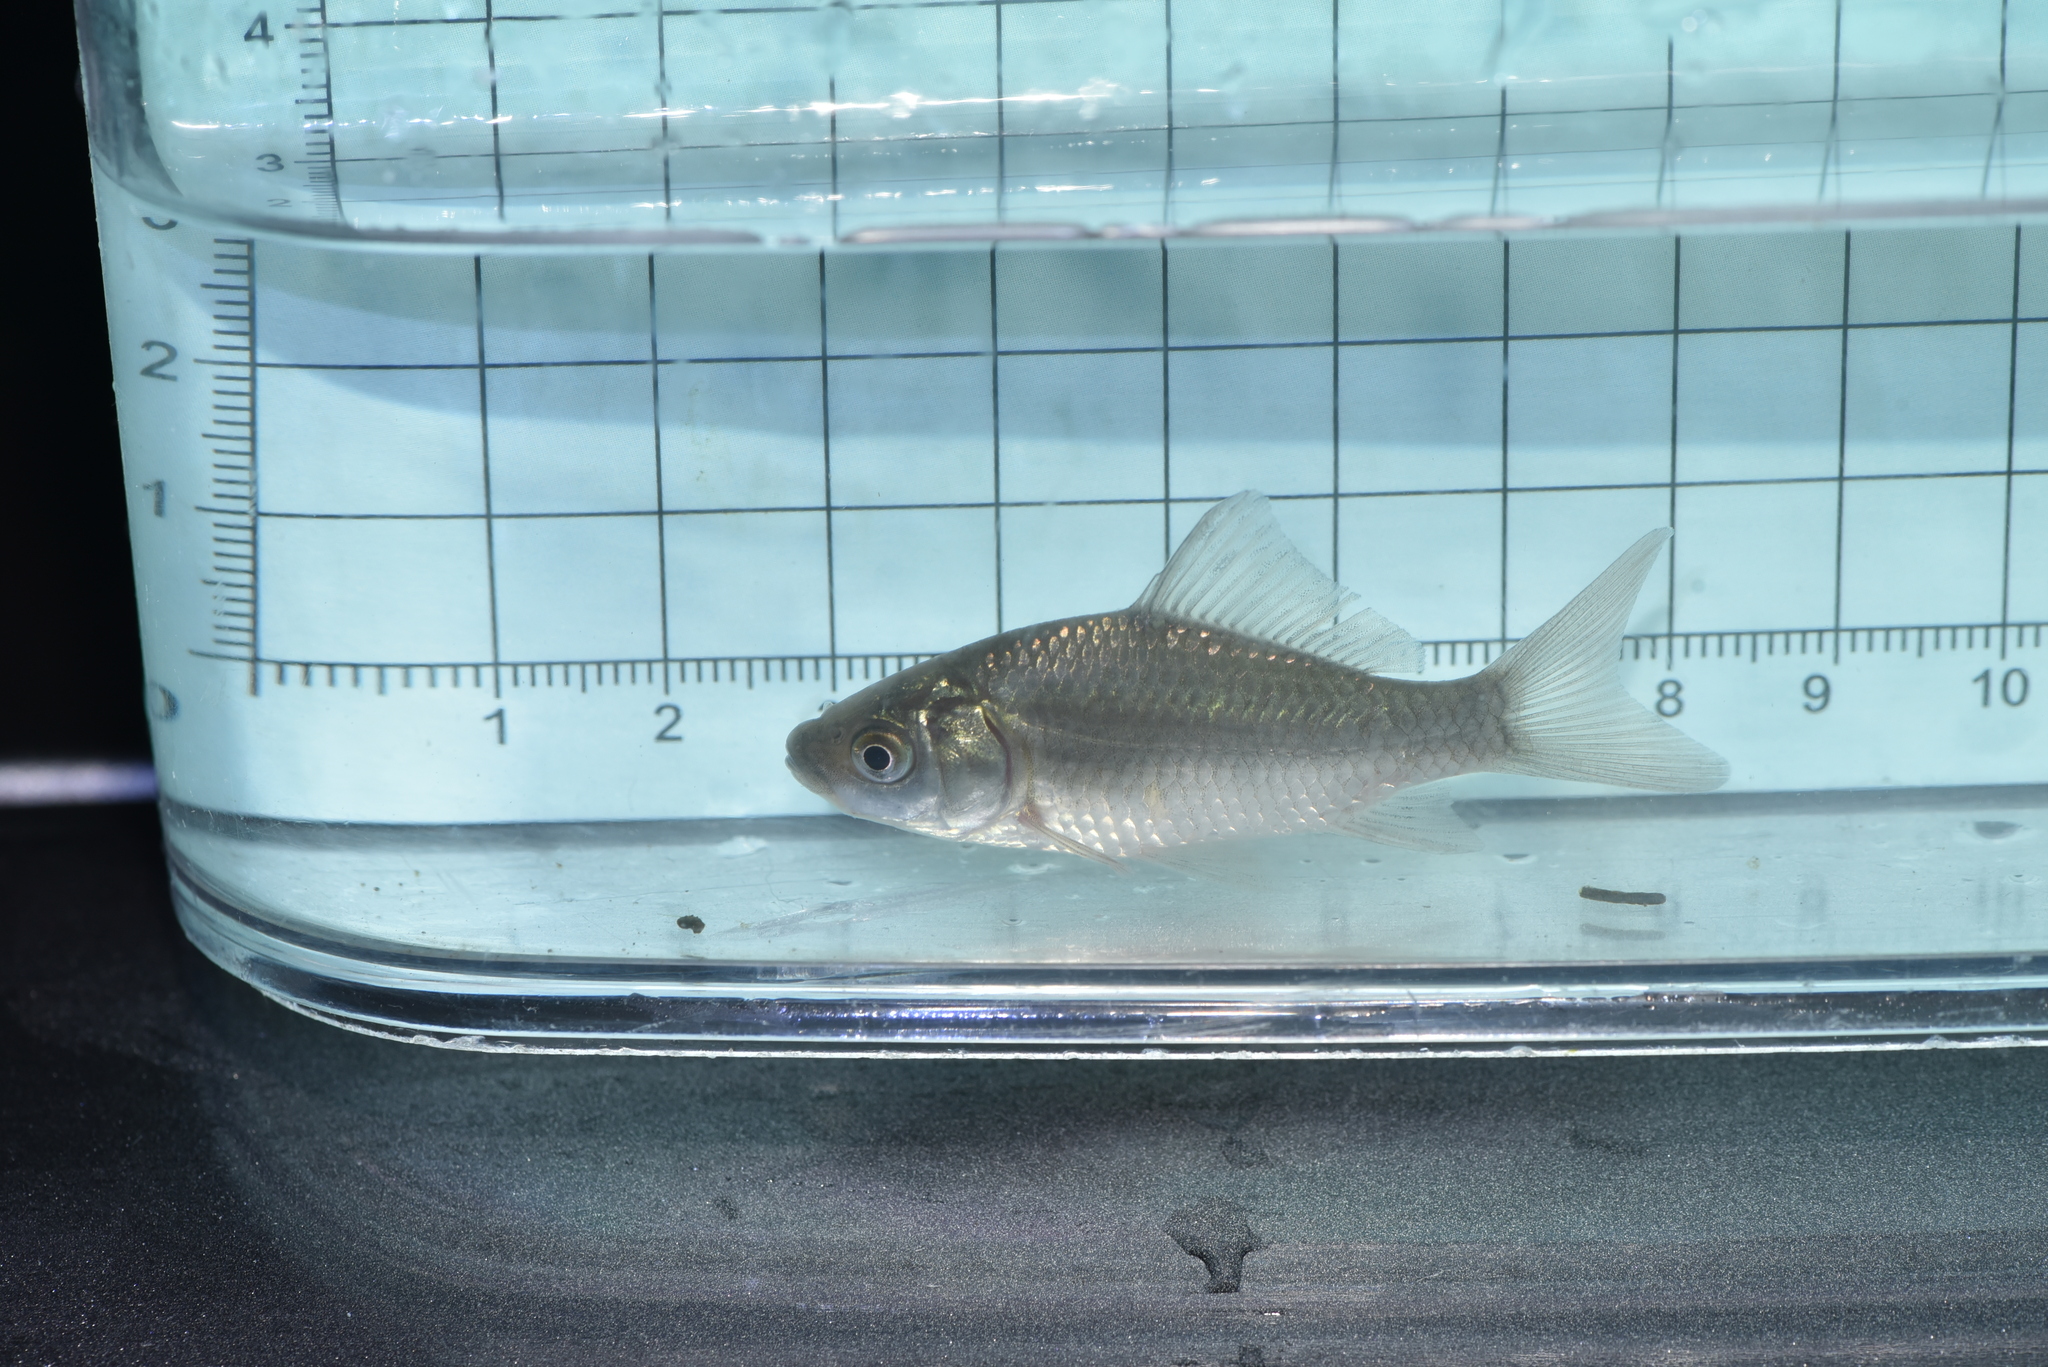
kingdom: Animalia
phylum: Chordata
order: Cypriniformes
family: Cyprinidae
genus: Carassius
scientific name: Carassius auratus
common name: Goldfish
